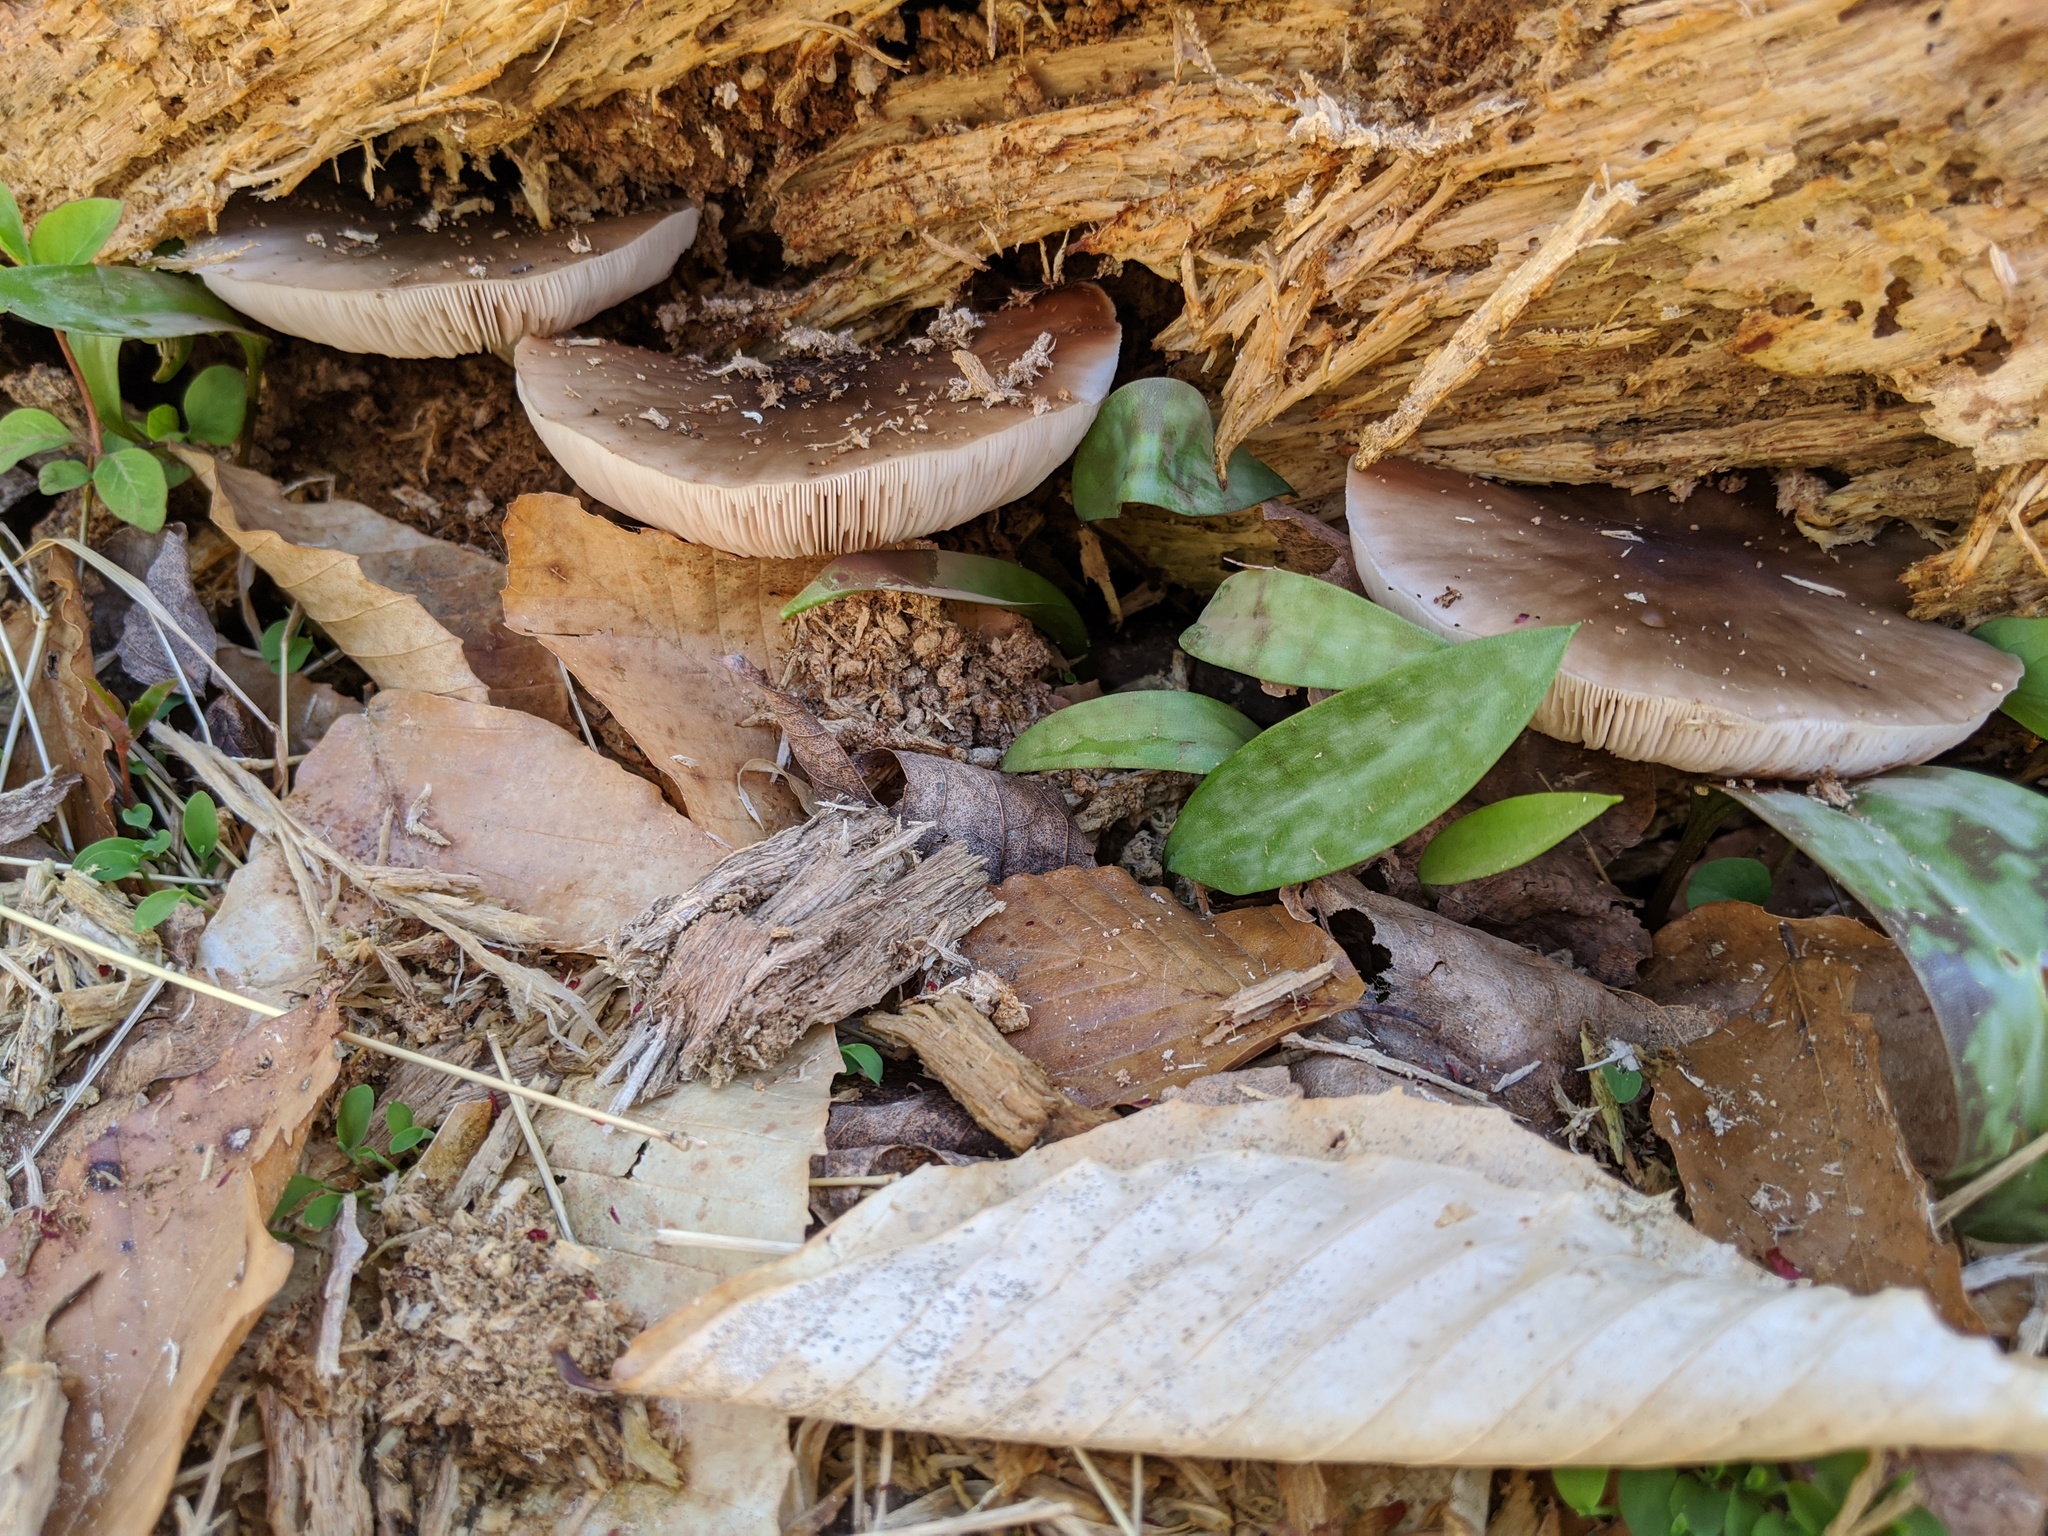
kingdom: Fungi
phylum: Basidiomycota
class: Agaricomycetes
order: Agaricales
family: Pluteaceae
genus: Pluteus
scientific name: Pluteus cervinus
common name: Deer shield
